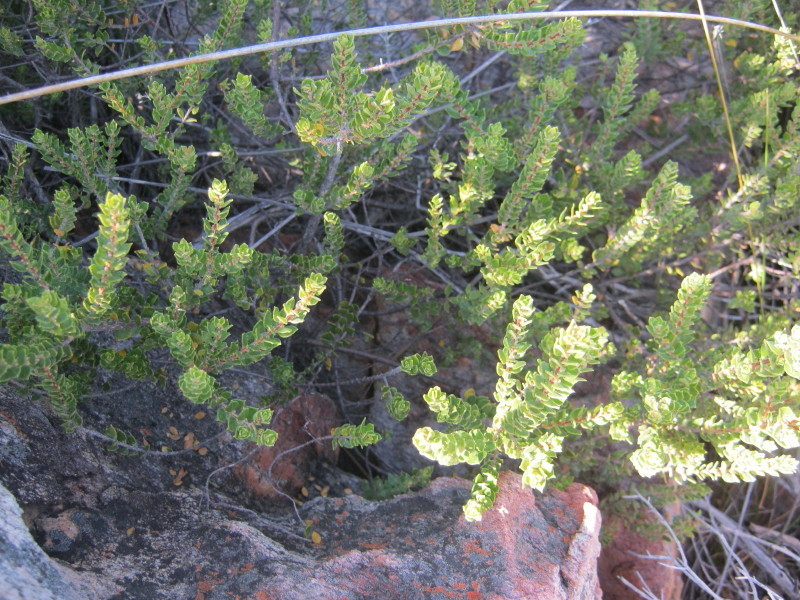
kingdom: Plantae
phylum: Tracheophyta
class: Magnoliopsida
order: Sapindales
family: Rutaceae
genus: Agathosma
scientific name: Agathosma ovata
